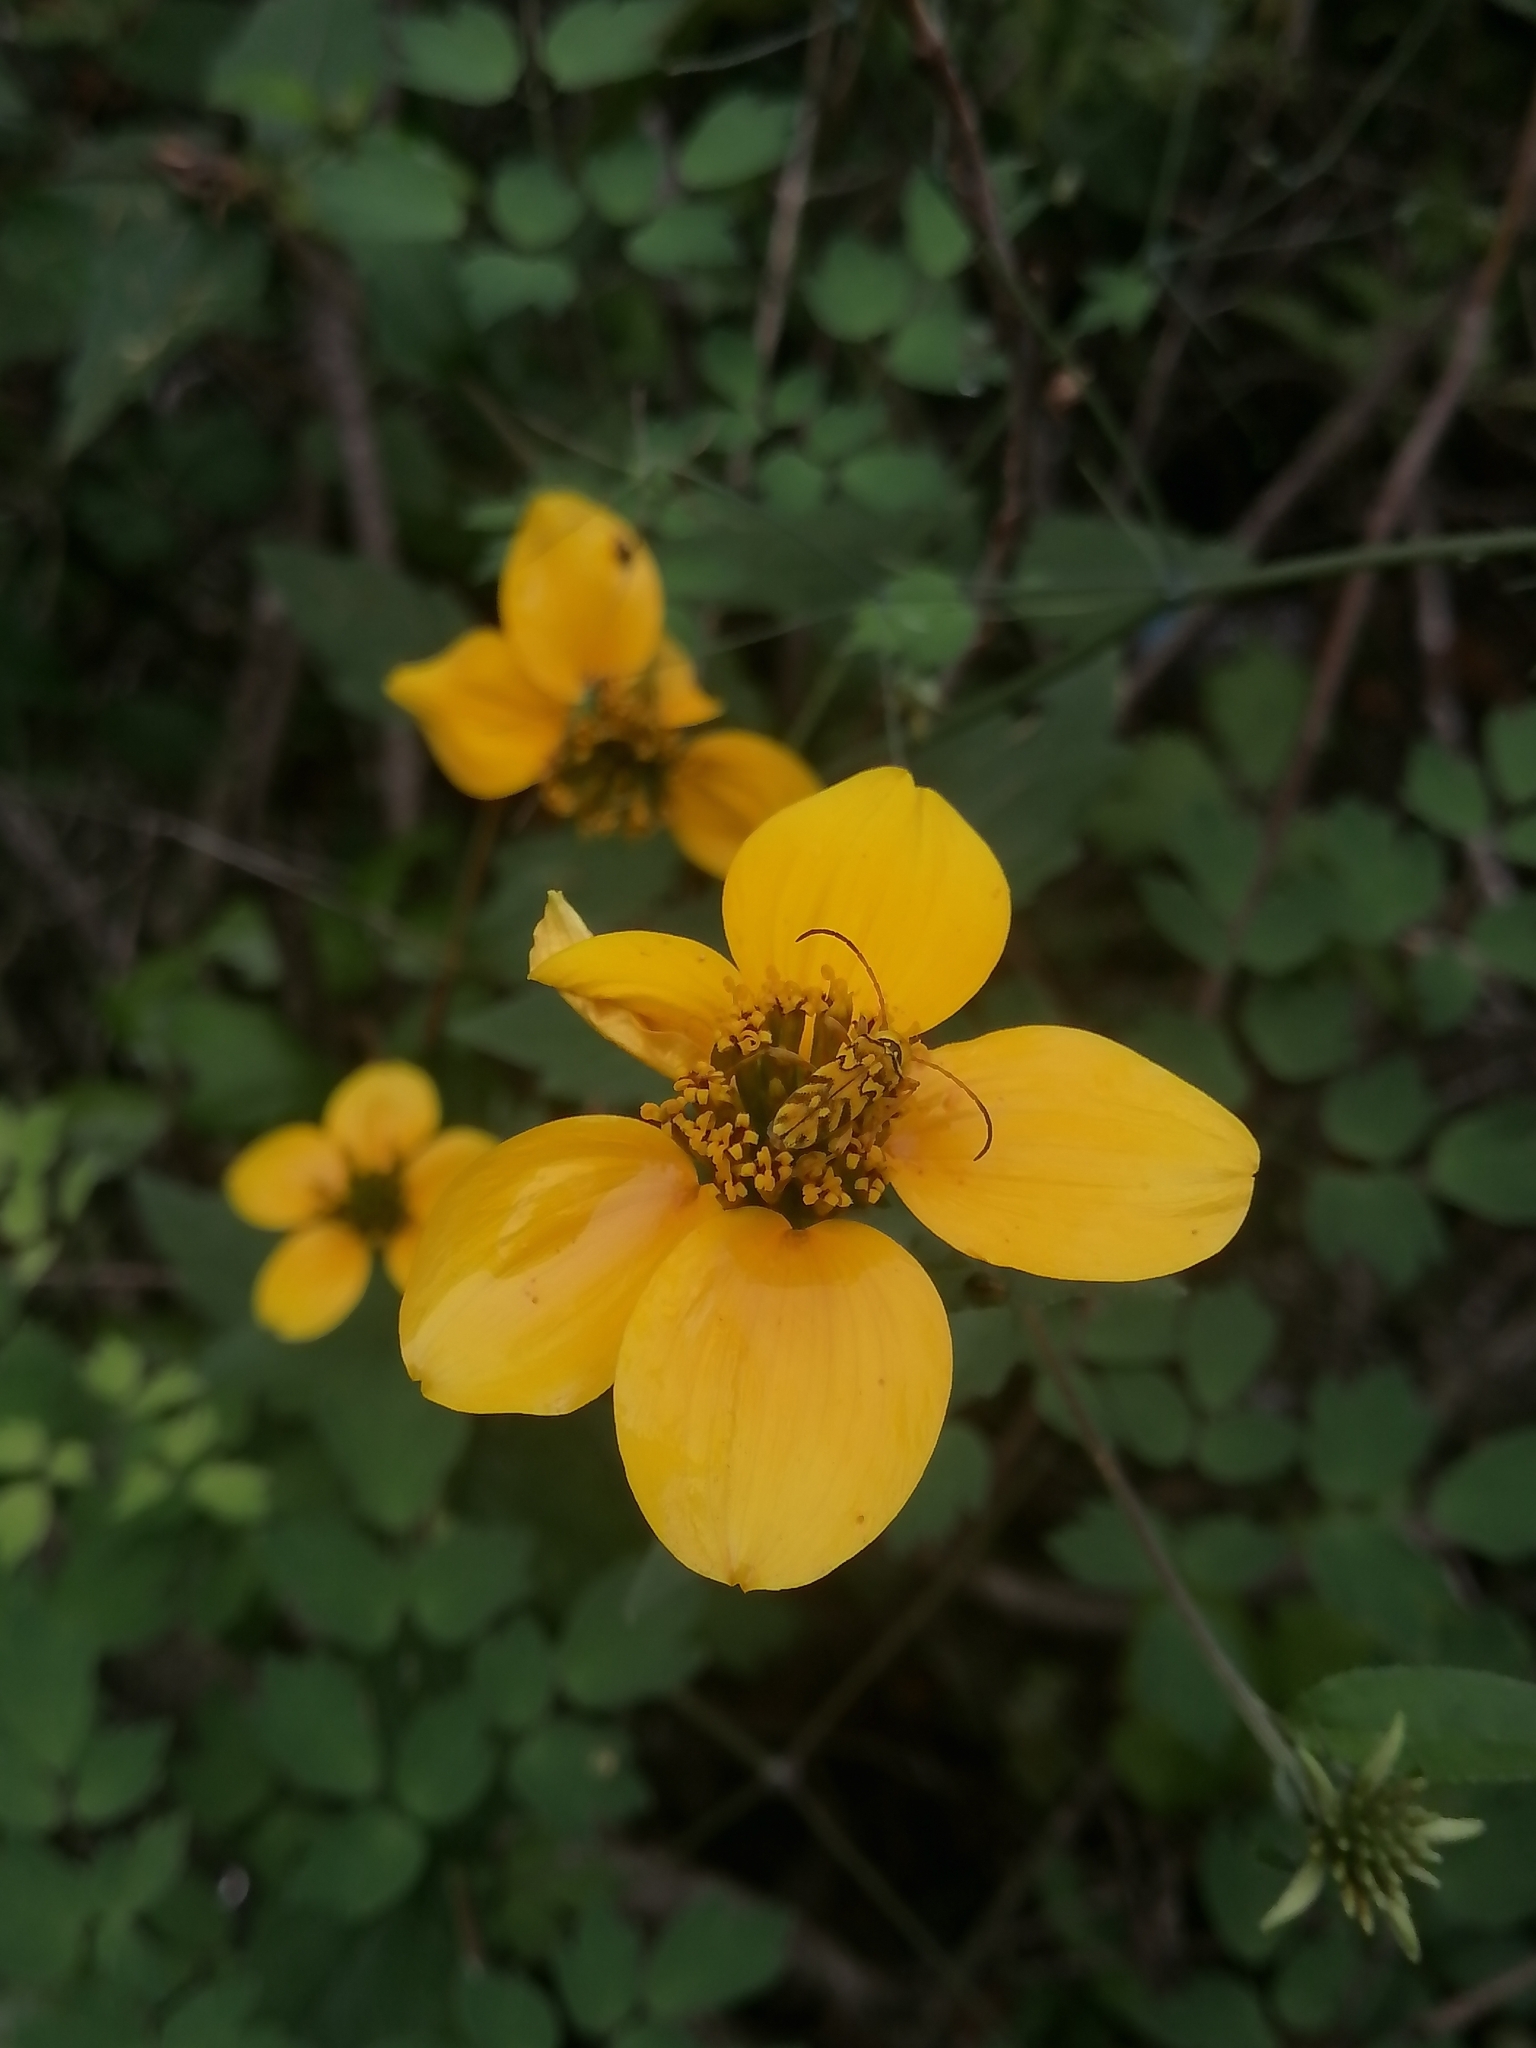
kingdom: Animalia
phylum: Arthropoda
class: Insecta
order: Coleoptera
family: Cerambycidae
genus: Ochraethes
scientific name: Ochraethes pollinosus
